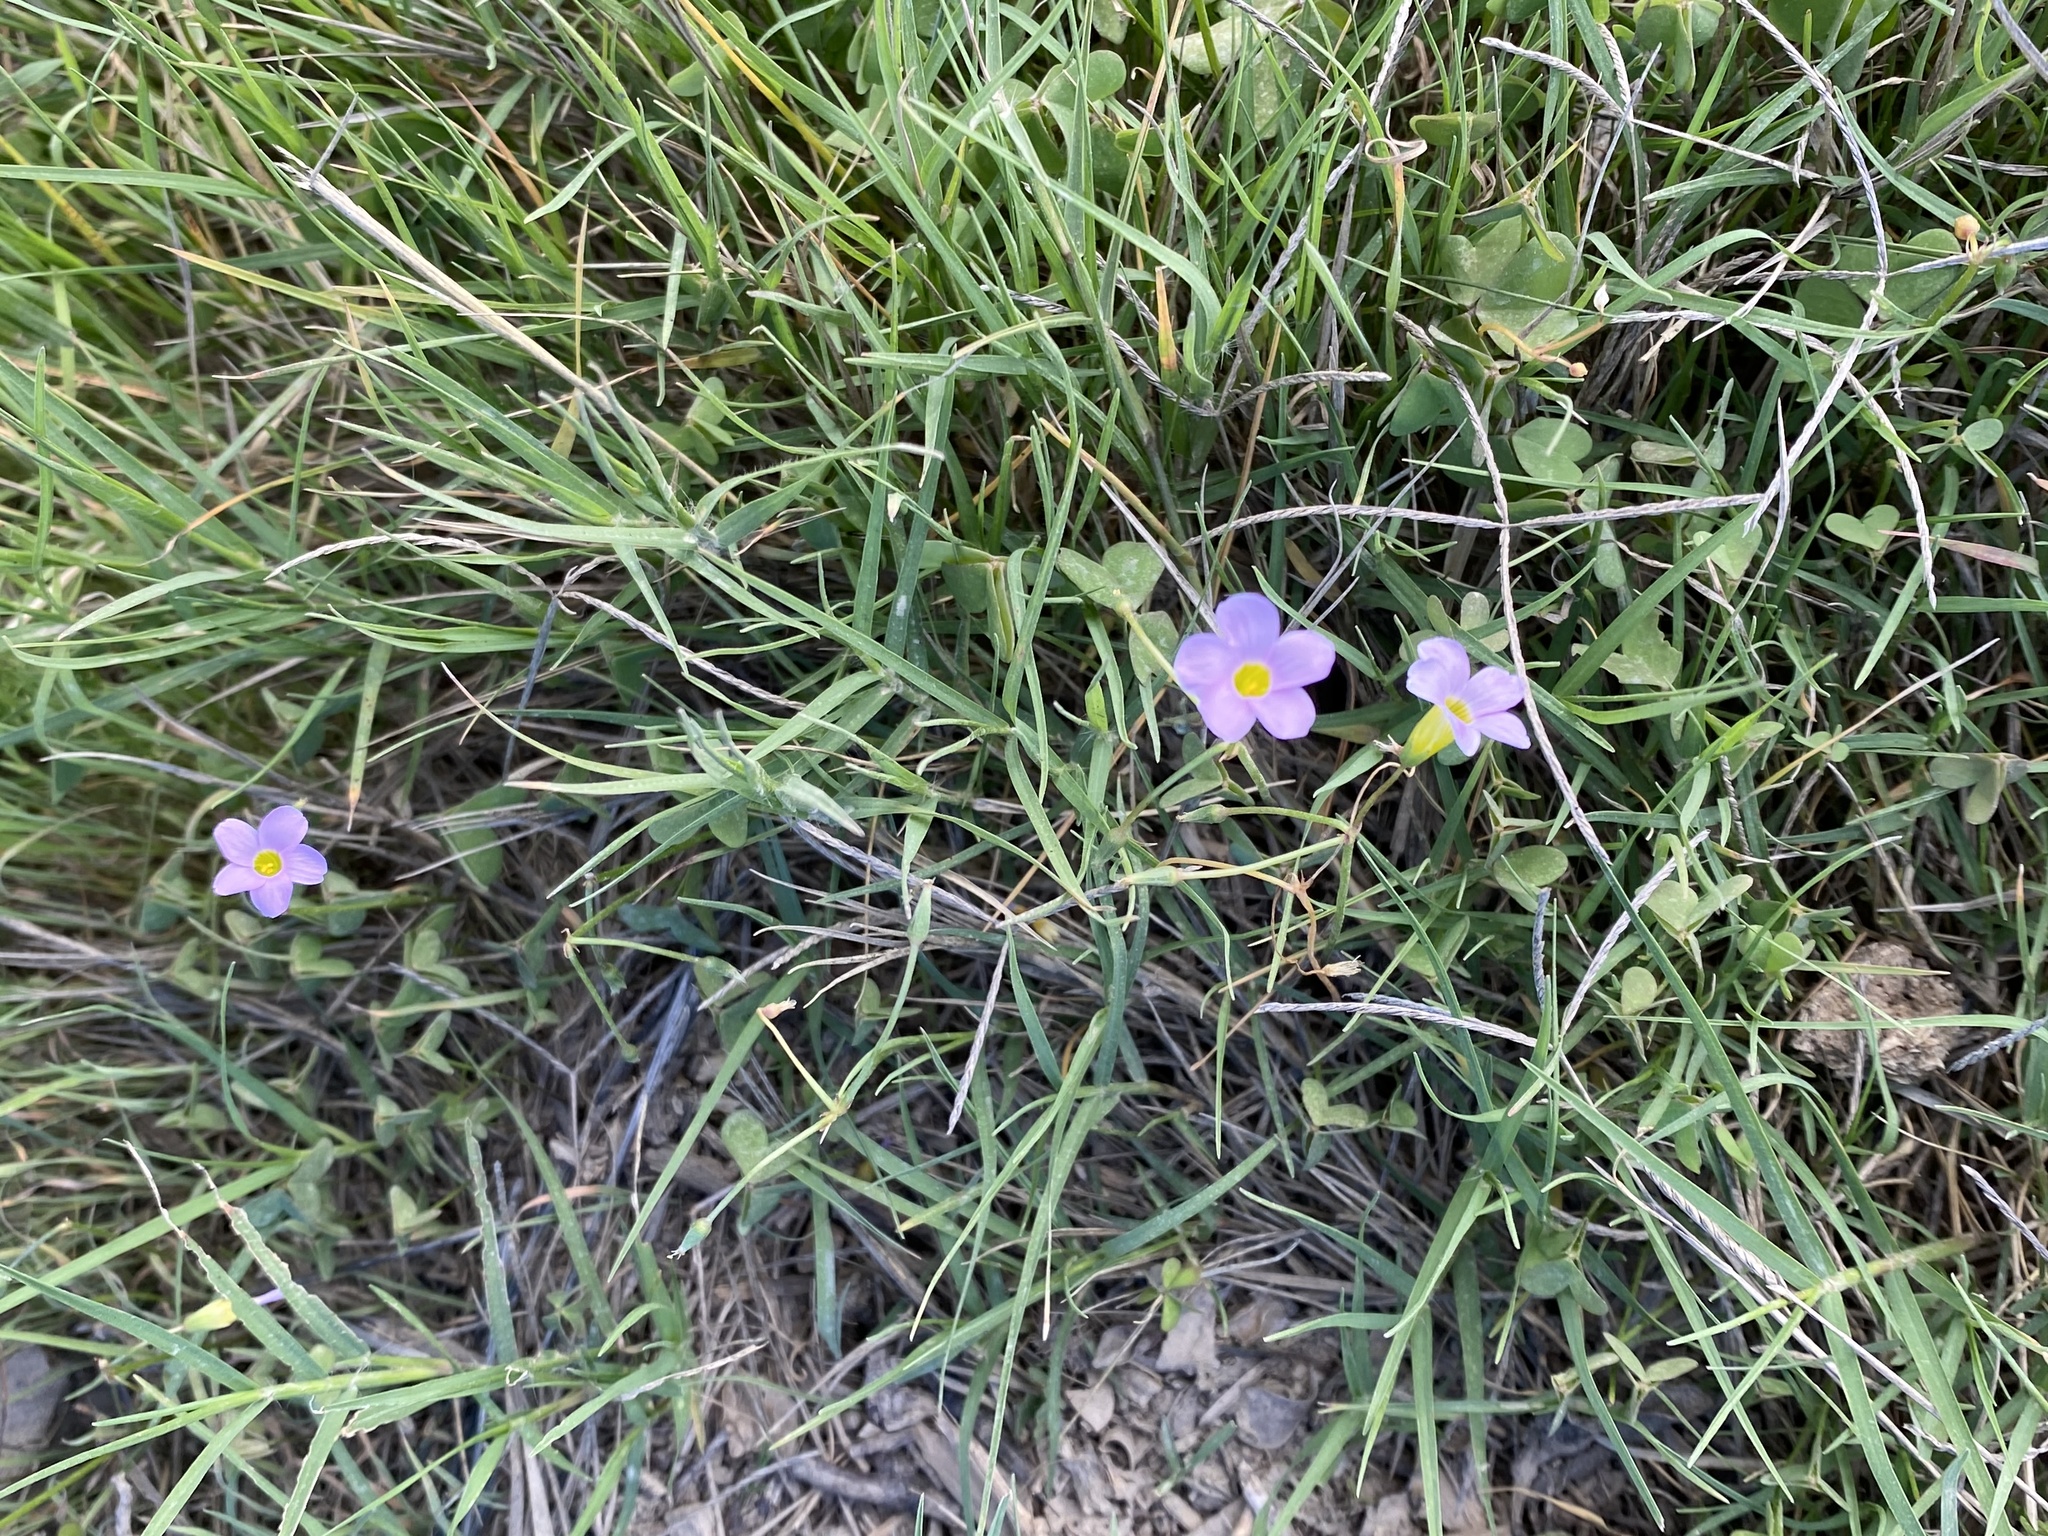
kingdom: Plantae
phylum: Tracheophyta
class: Magnoliopsida
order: Oxalidales
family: Oxalidaceae
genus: Oxalis
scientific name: Oxalis caprina
